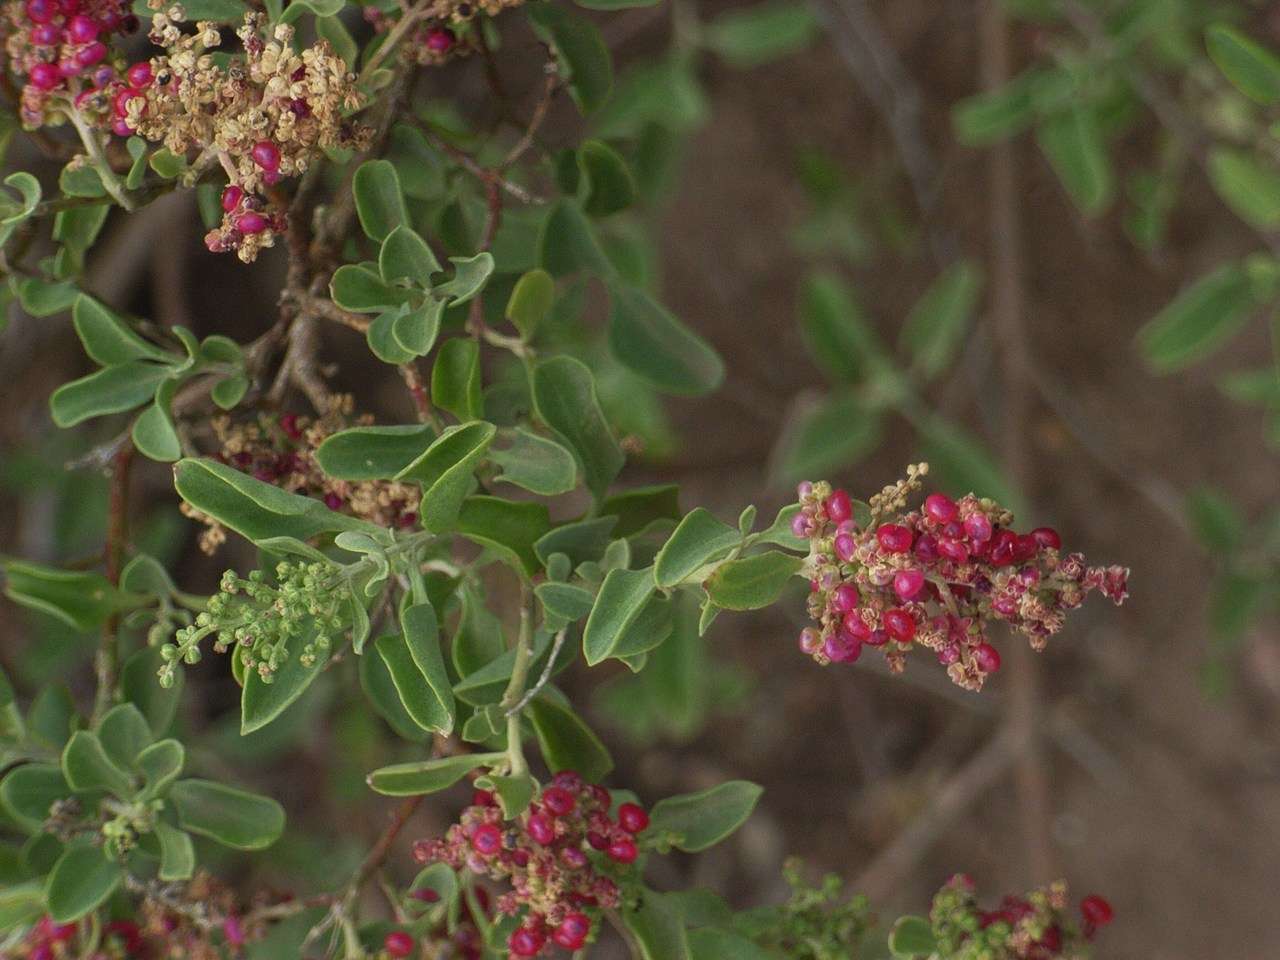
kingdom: Plantae
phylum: Tracheophyta
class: Magnoliopsida
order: Caryophyllales
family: Amaranthaceae
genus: Chenopodium
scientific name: Chenopodium parabolicum
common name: Old-man-saltbush
